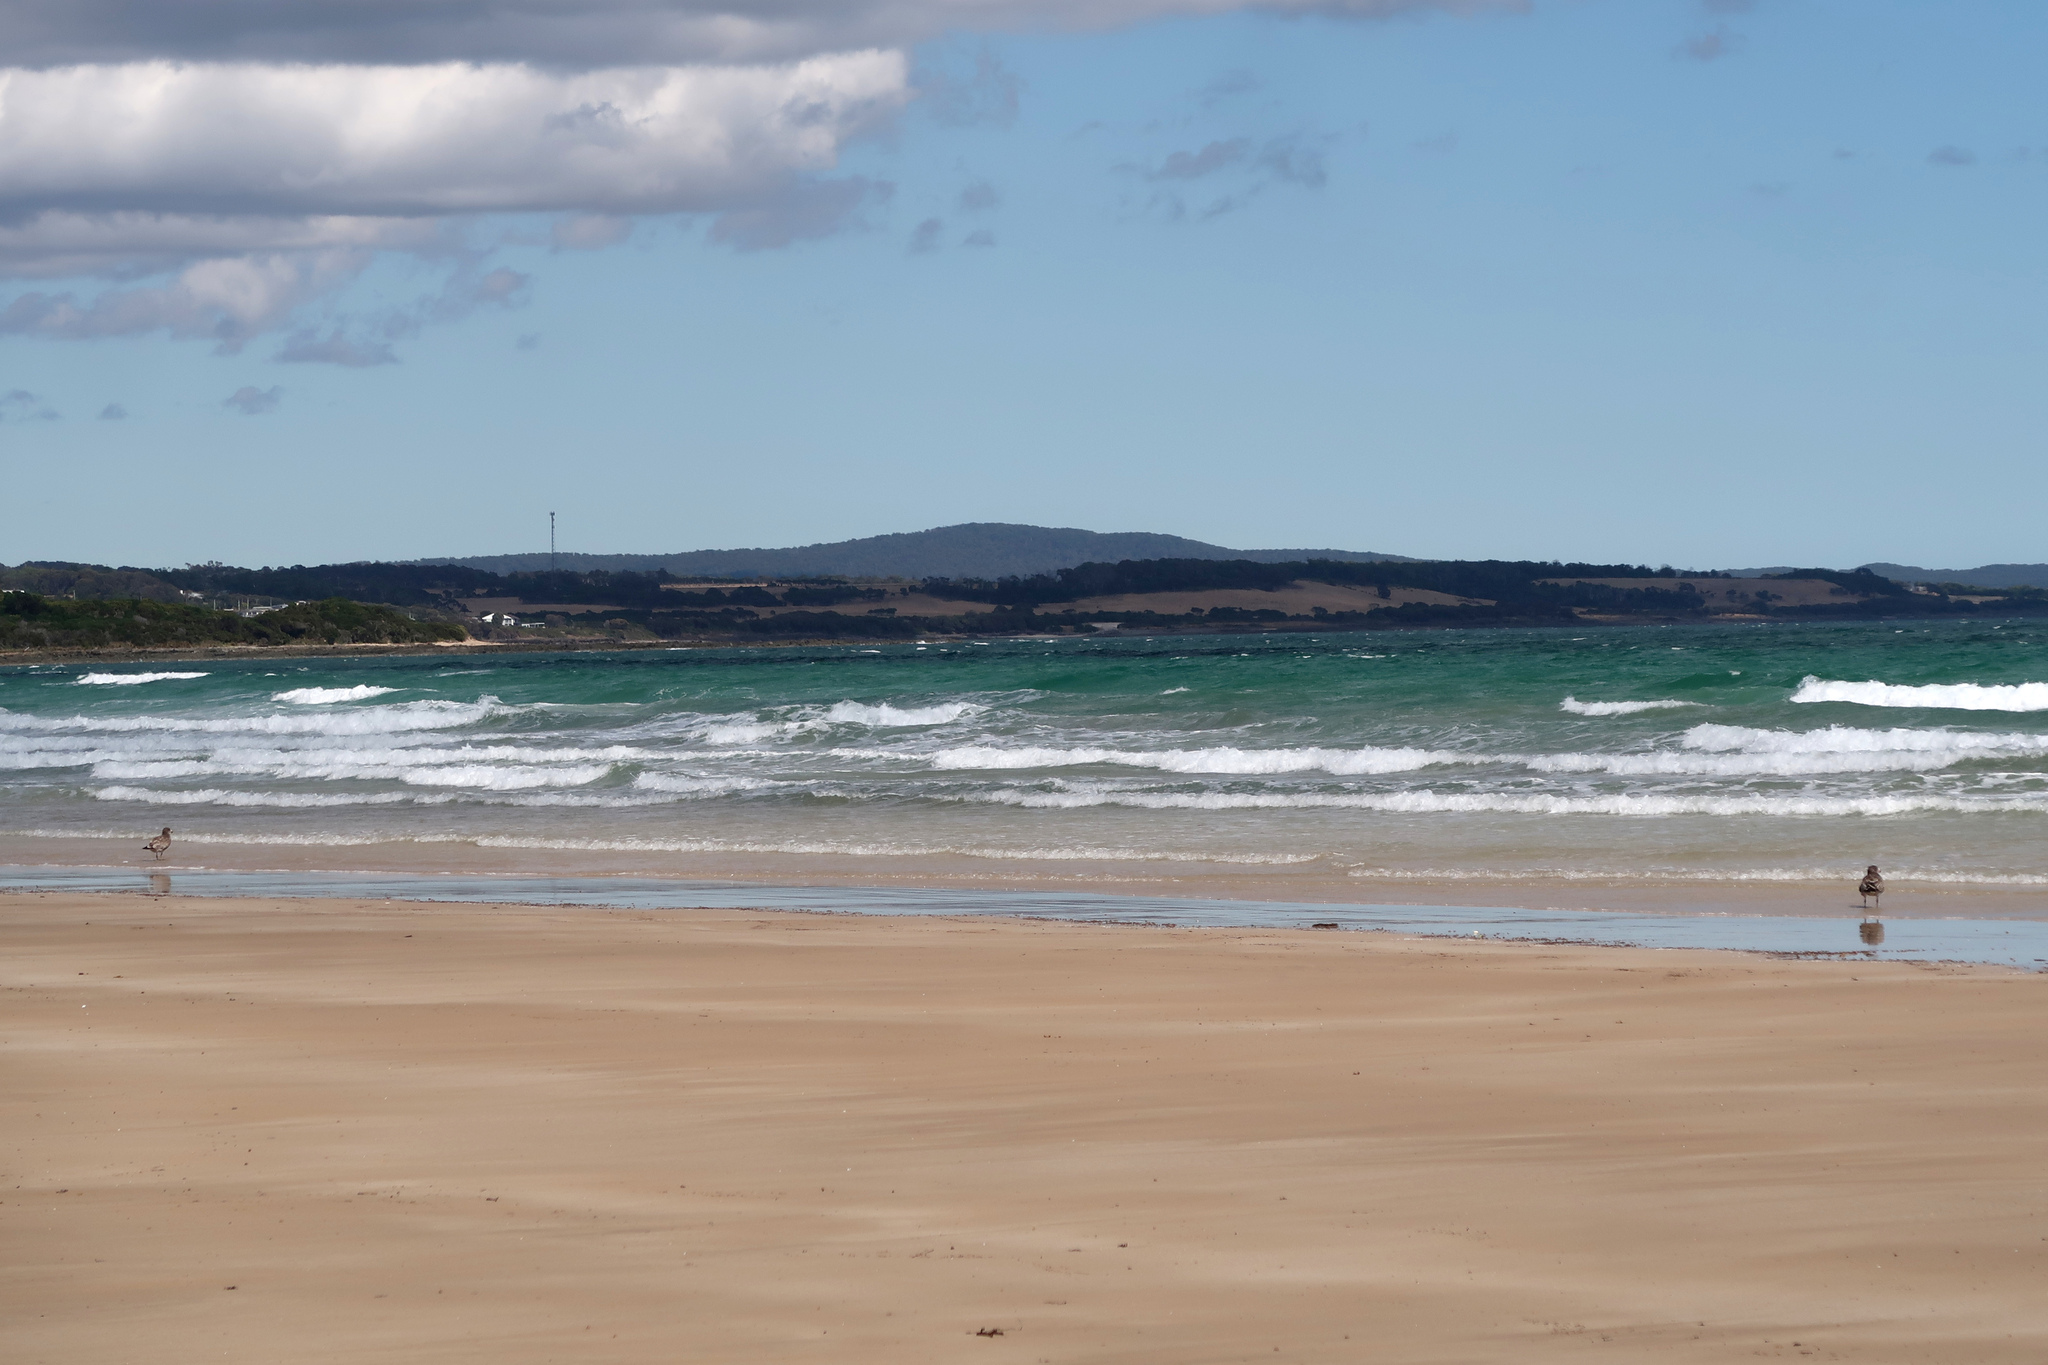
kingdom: Animalia
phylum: Chordata
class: Aves
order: Charadriiformes
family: Laridae
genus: Larus
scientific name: Larus pacificus
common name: Pacific gull
